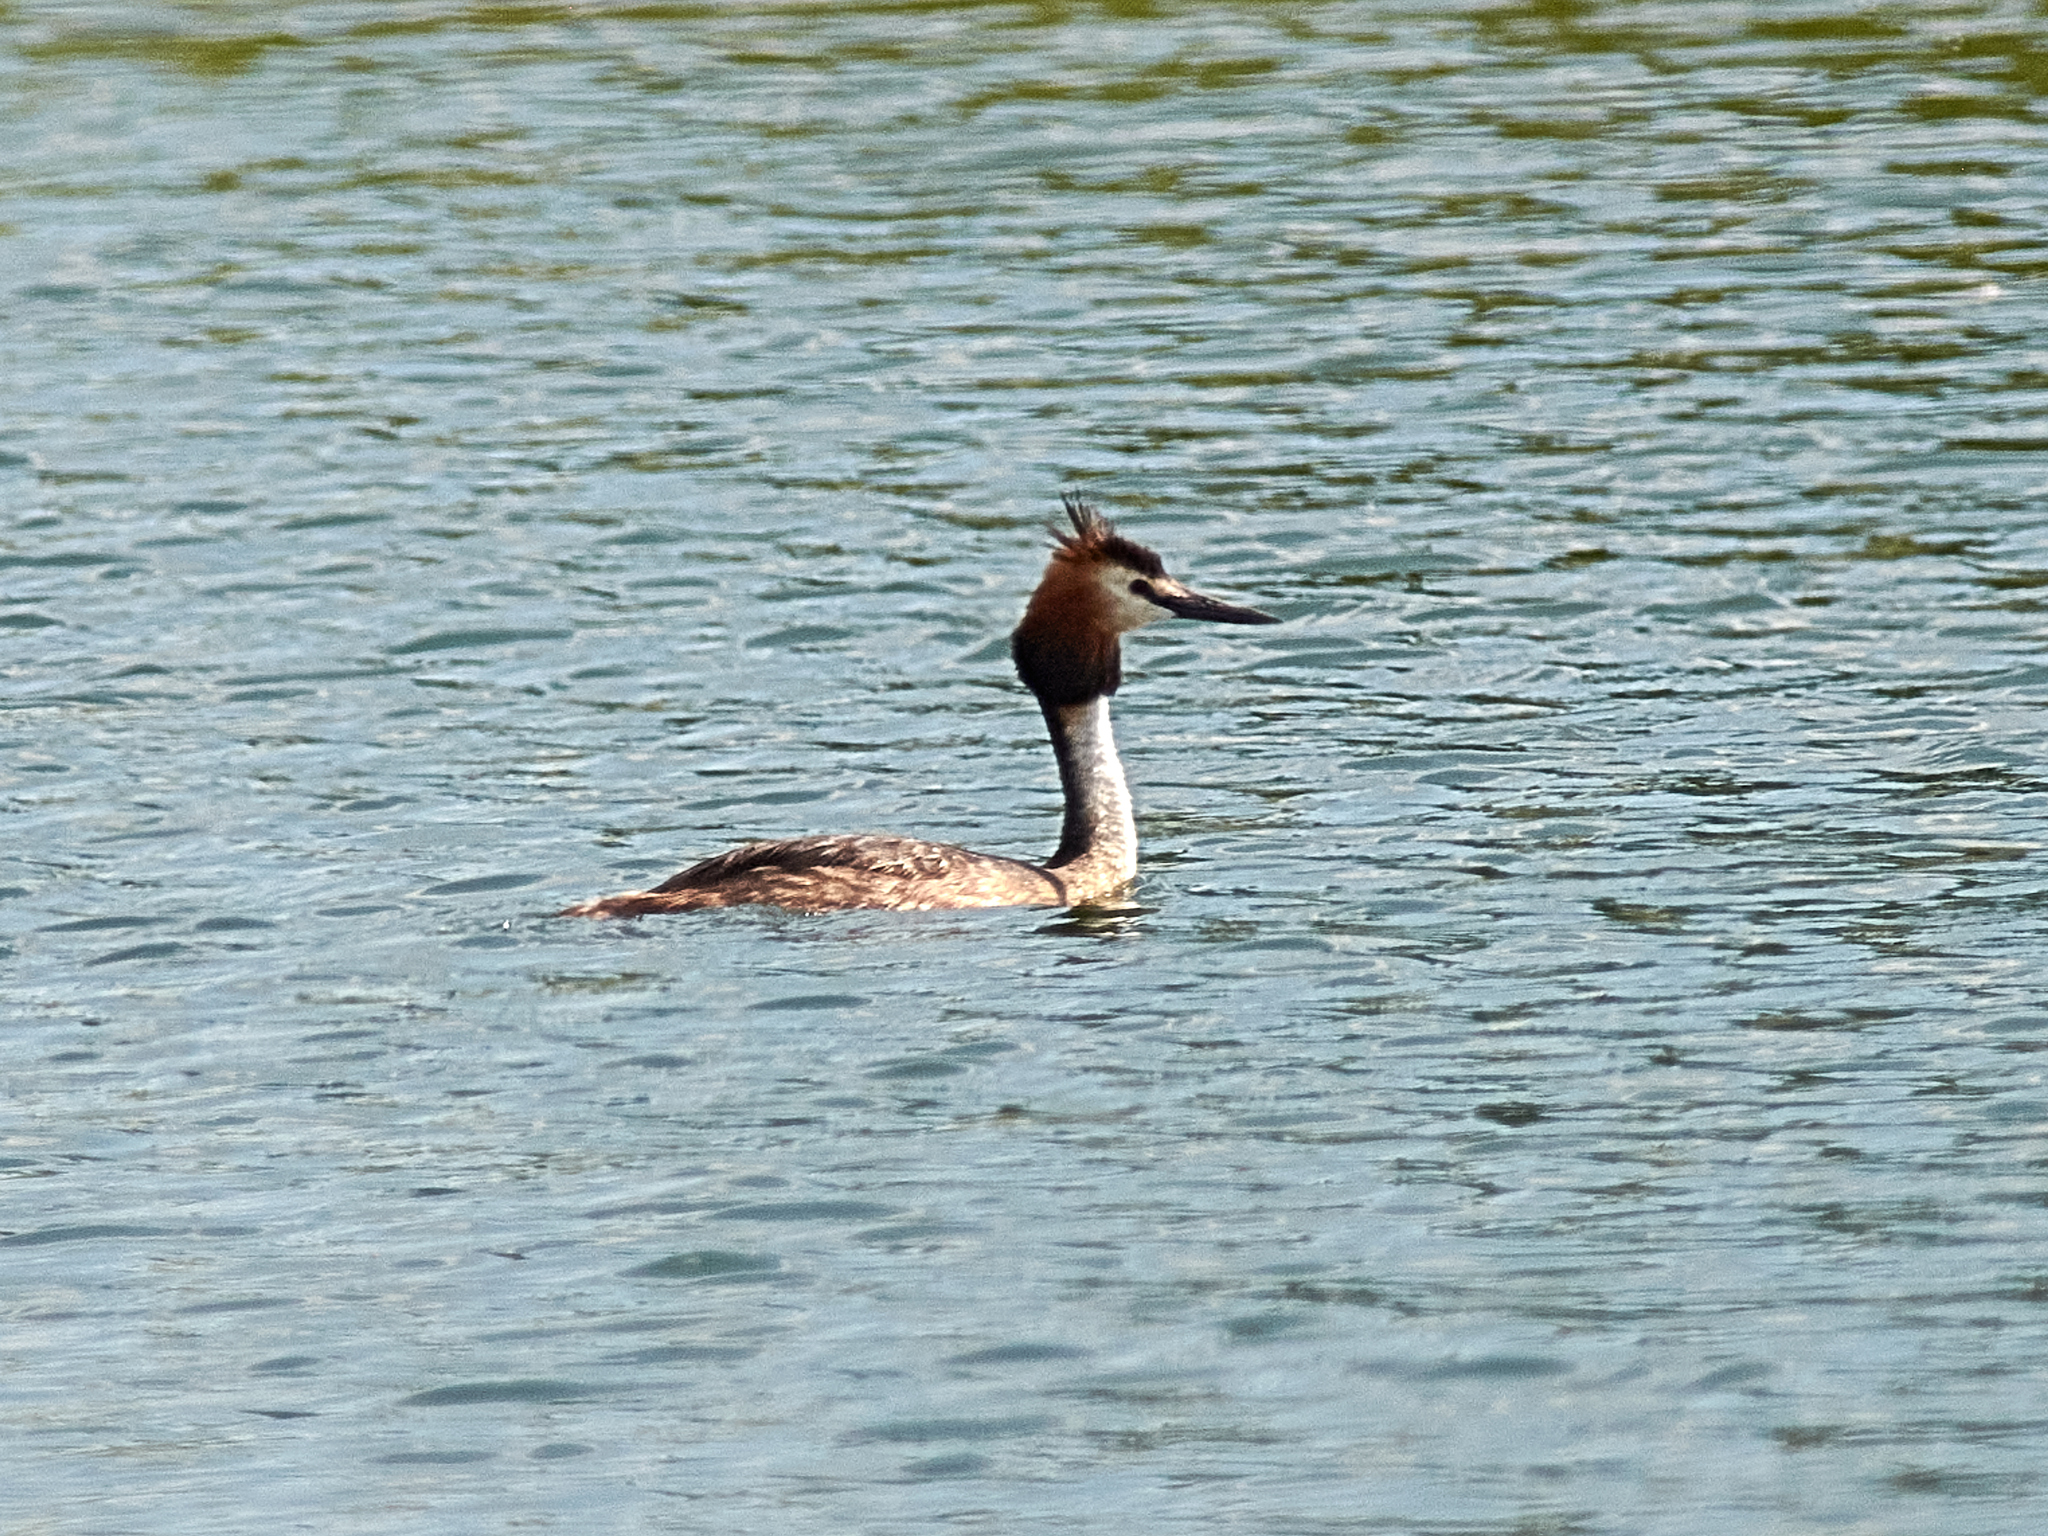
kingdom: Animalia
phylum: Chordata
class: Aves
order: Podicipediformes
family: Podicipedidae
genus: Podiceps
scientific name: Podiceps cristatus
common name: Great crested grebe
